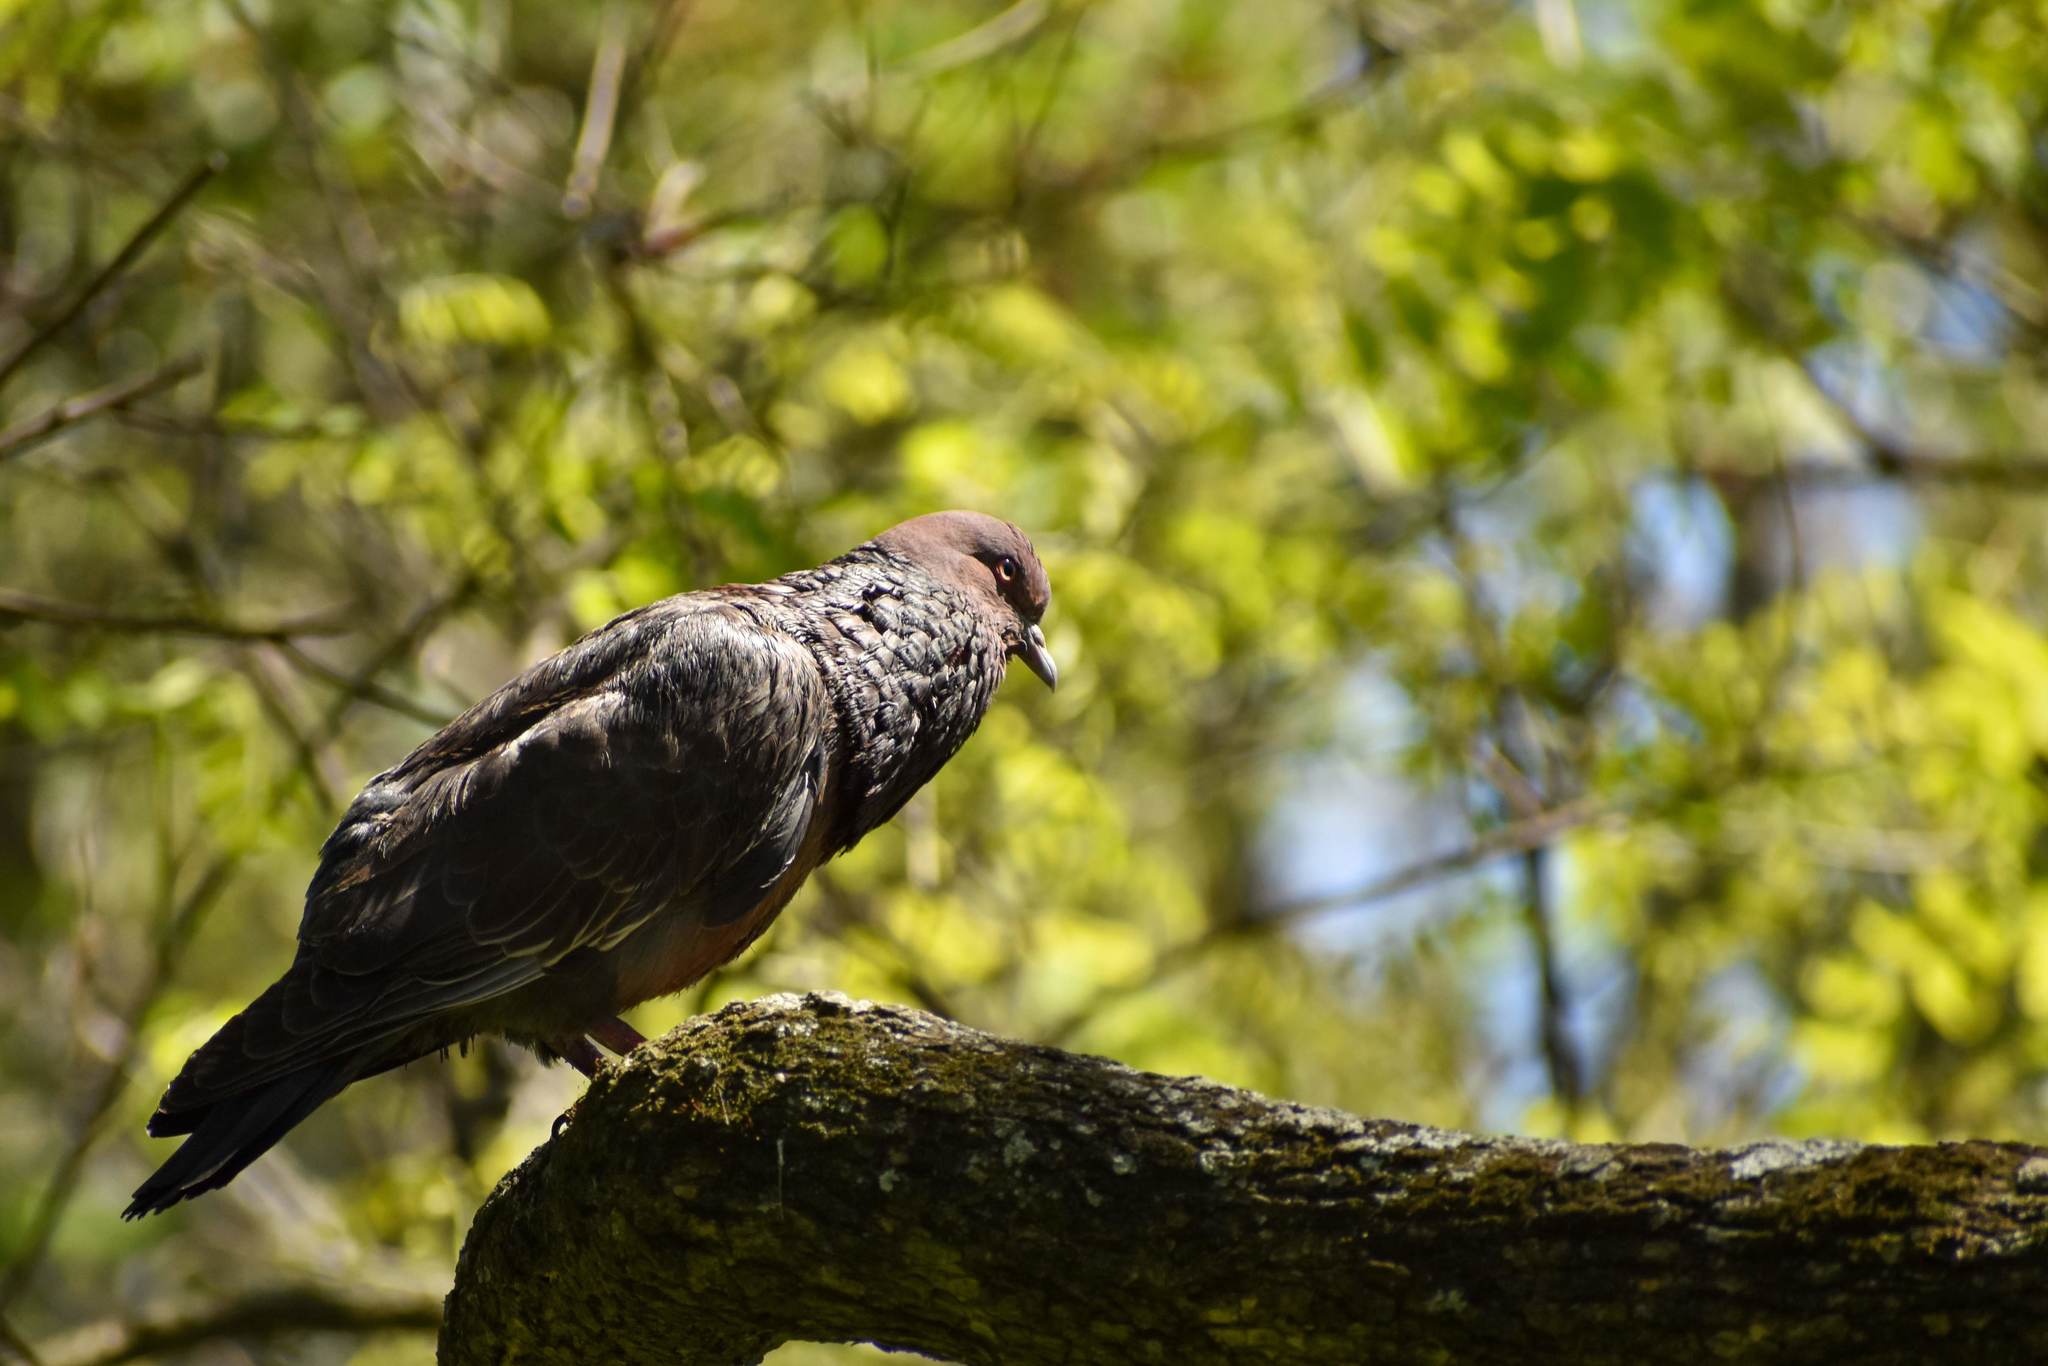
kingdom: Animalia
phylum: Chordata
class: Aves
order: Columbiformes
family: Columbidae
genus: Patagioenas
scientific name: Patagioenas picazuro
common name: Picazuro pigeon
